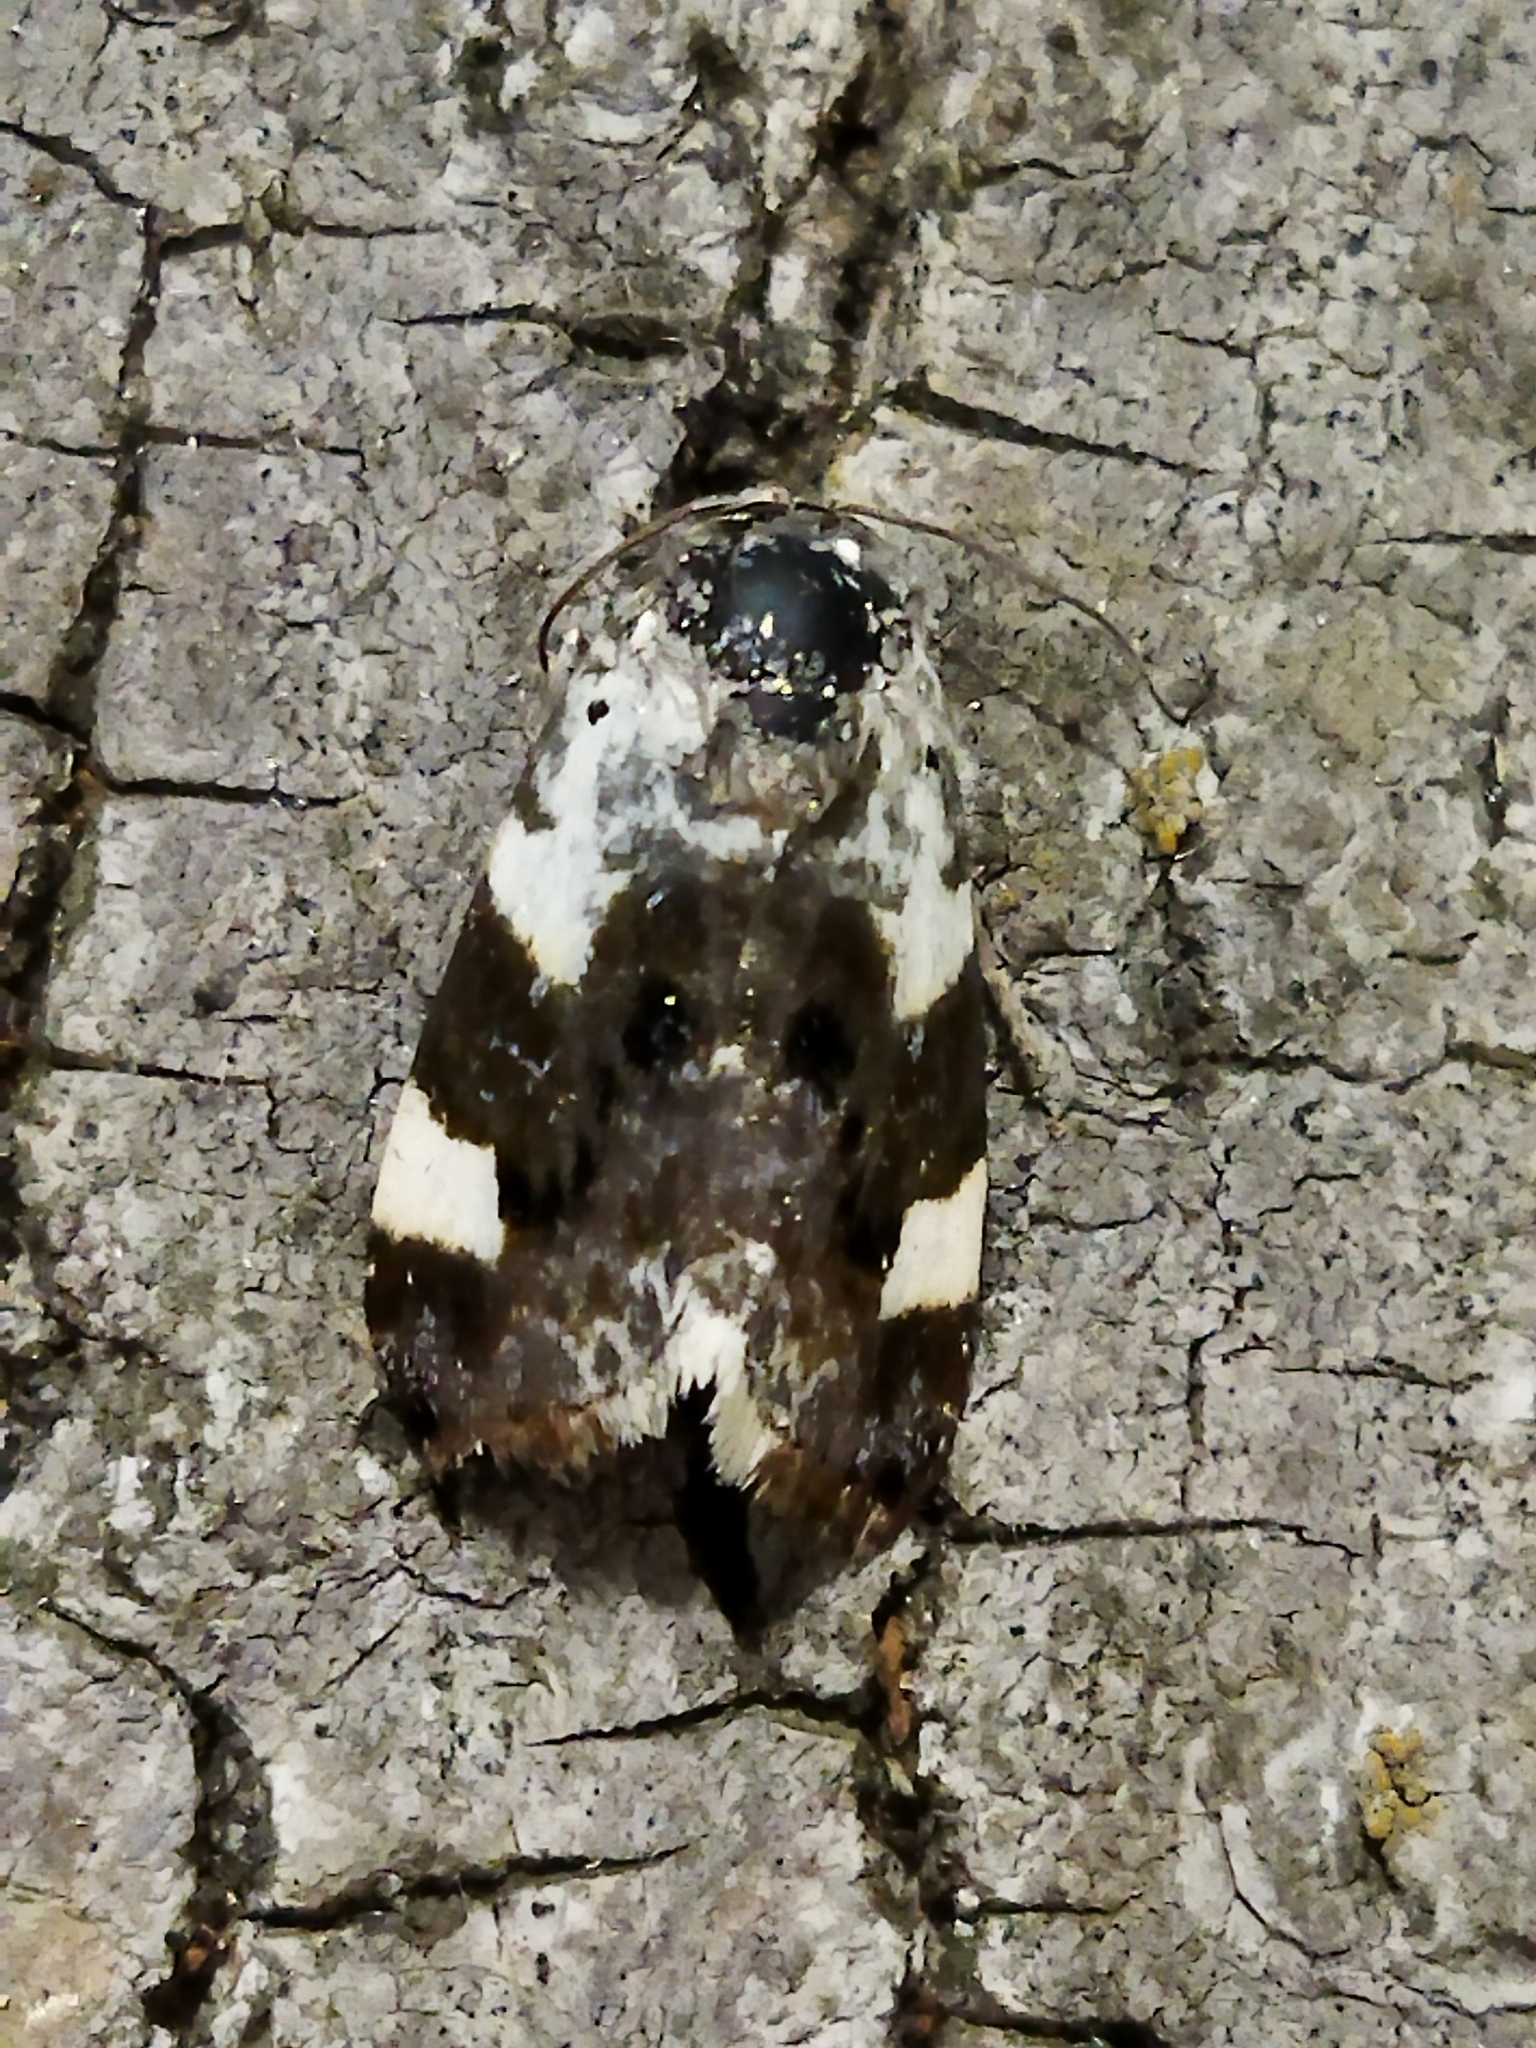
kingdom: Animalia
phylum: Arthropoda
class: Insecta
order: Lepidoptera
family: Noctuidae
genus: Acontia
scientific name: Acontia lucida
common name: Pale shoulder
